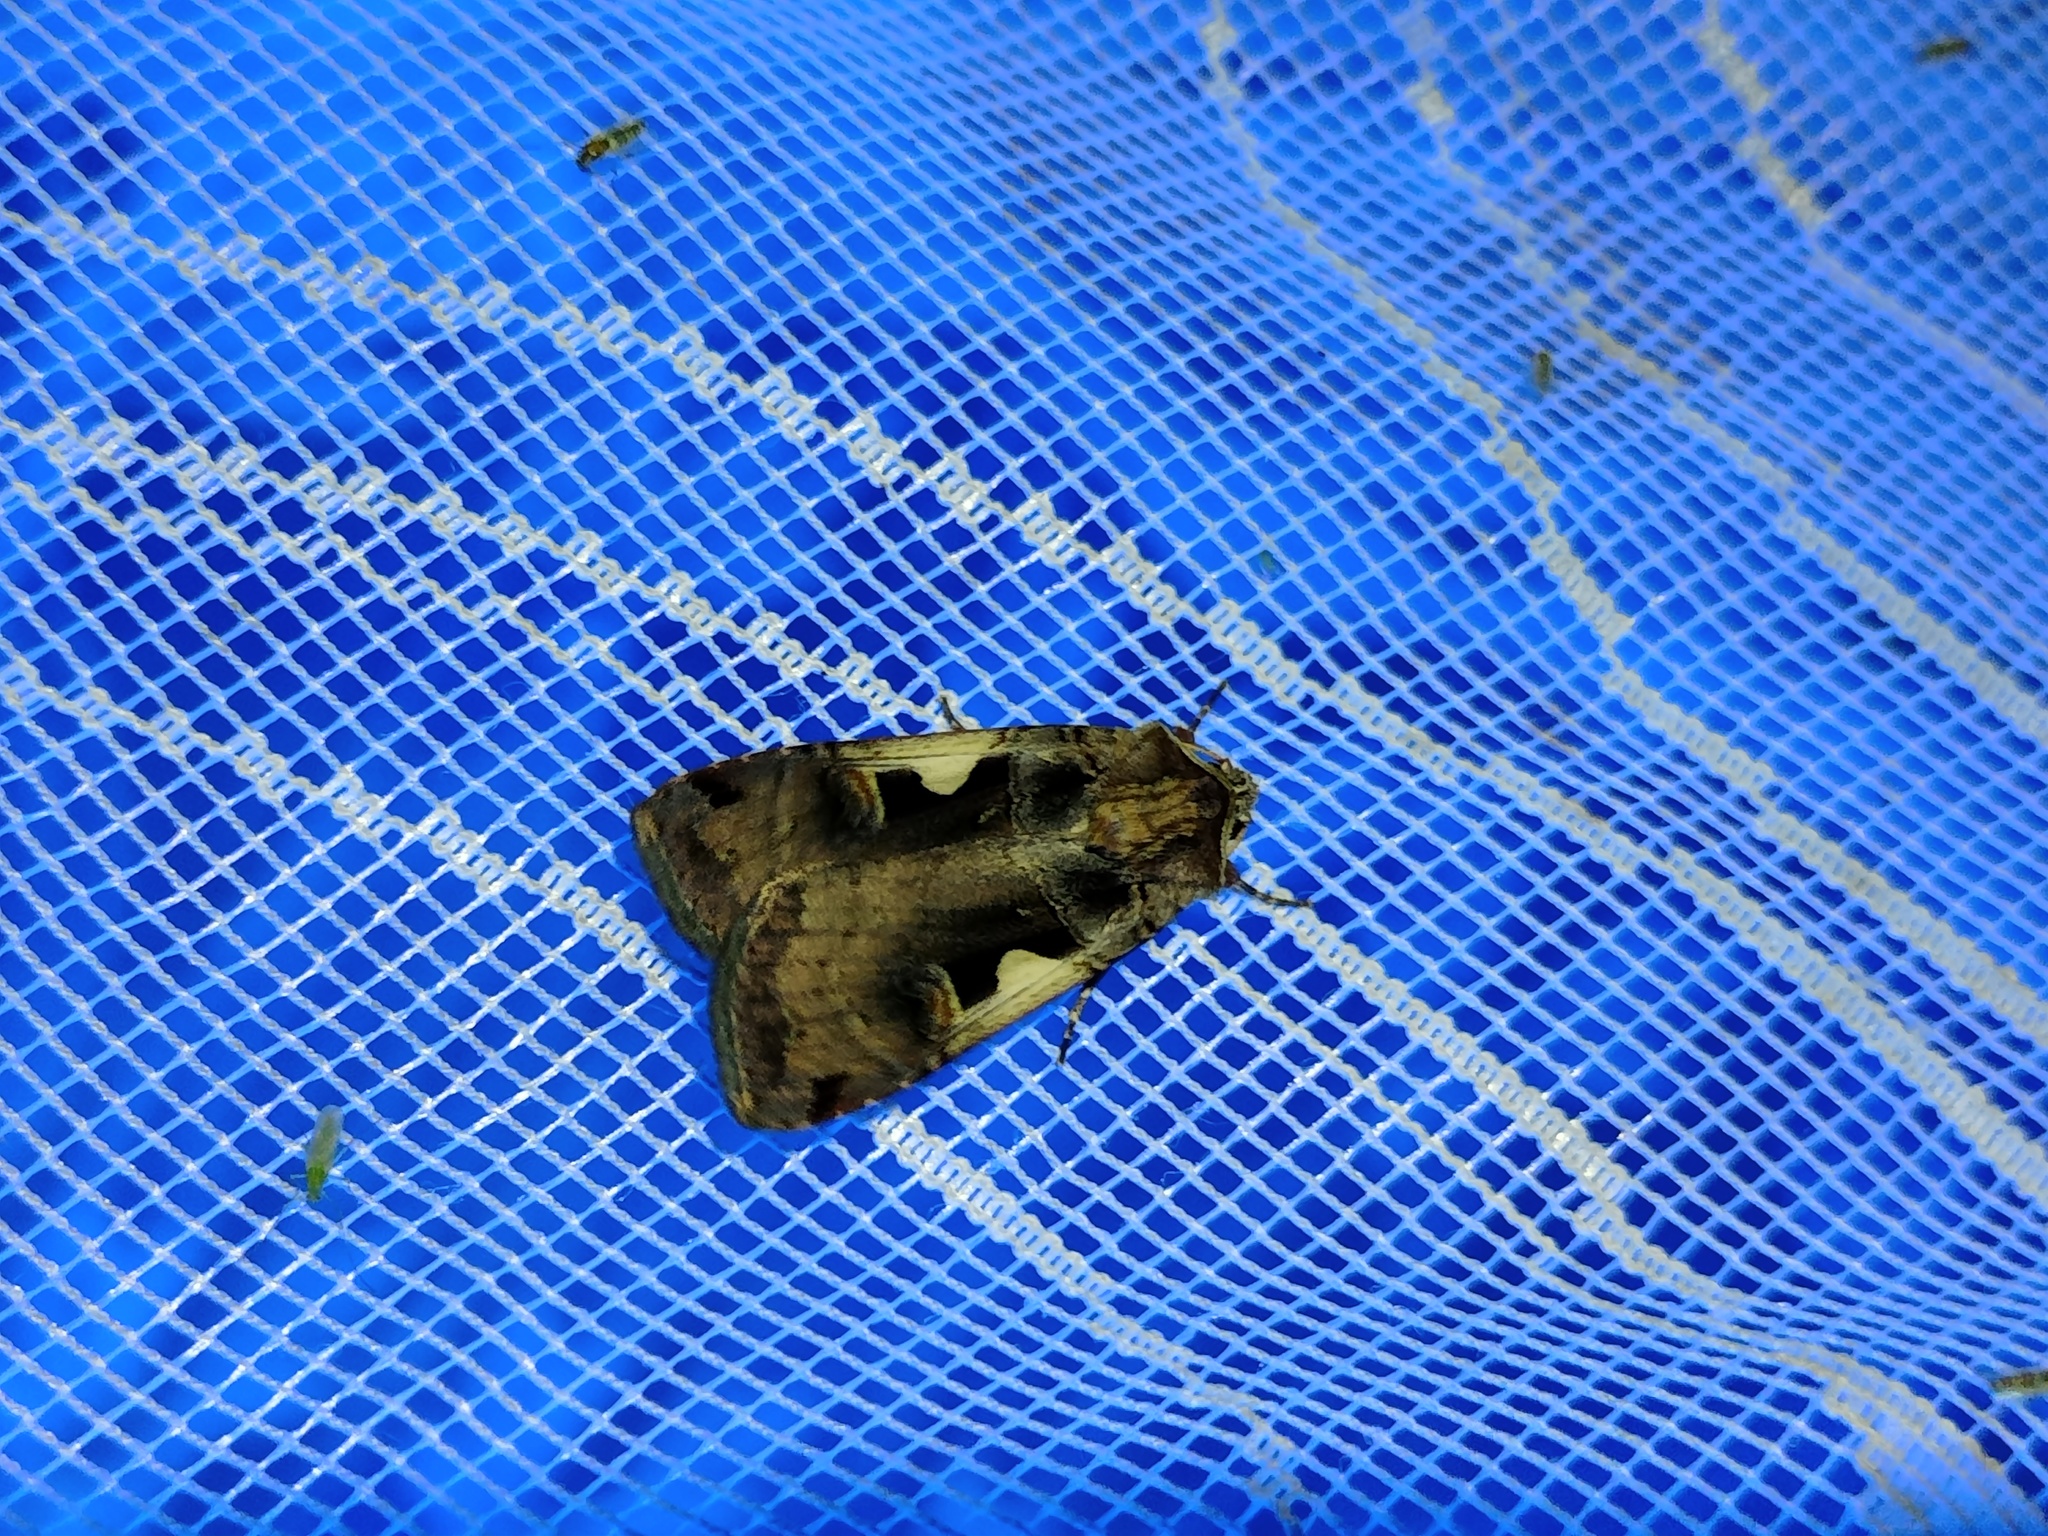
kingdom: Animalia
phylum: Arthropoda
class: Insecta
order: Lepidoptera
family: Noctuidae
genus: Xestia
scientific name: Xestia c-nigrum
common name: Setaceous hebrew character
